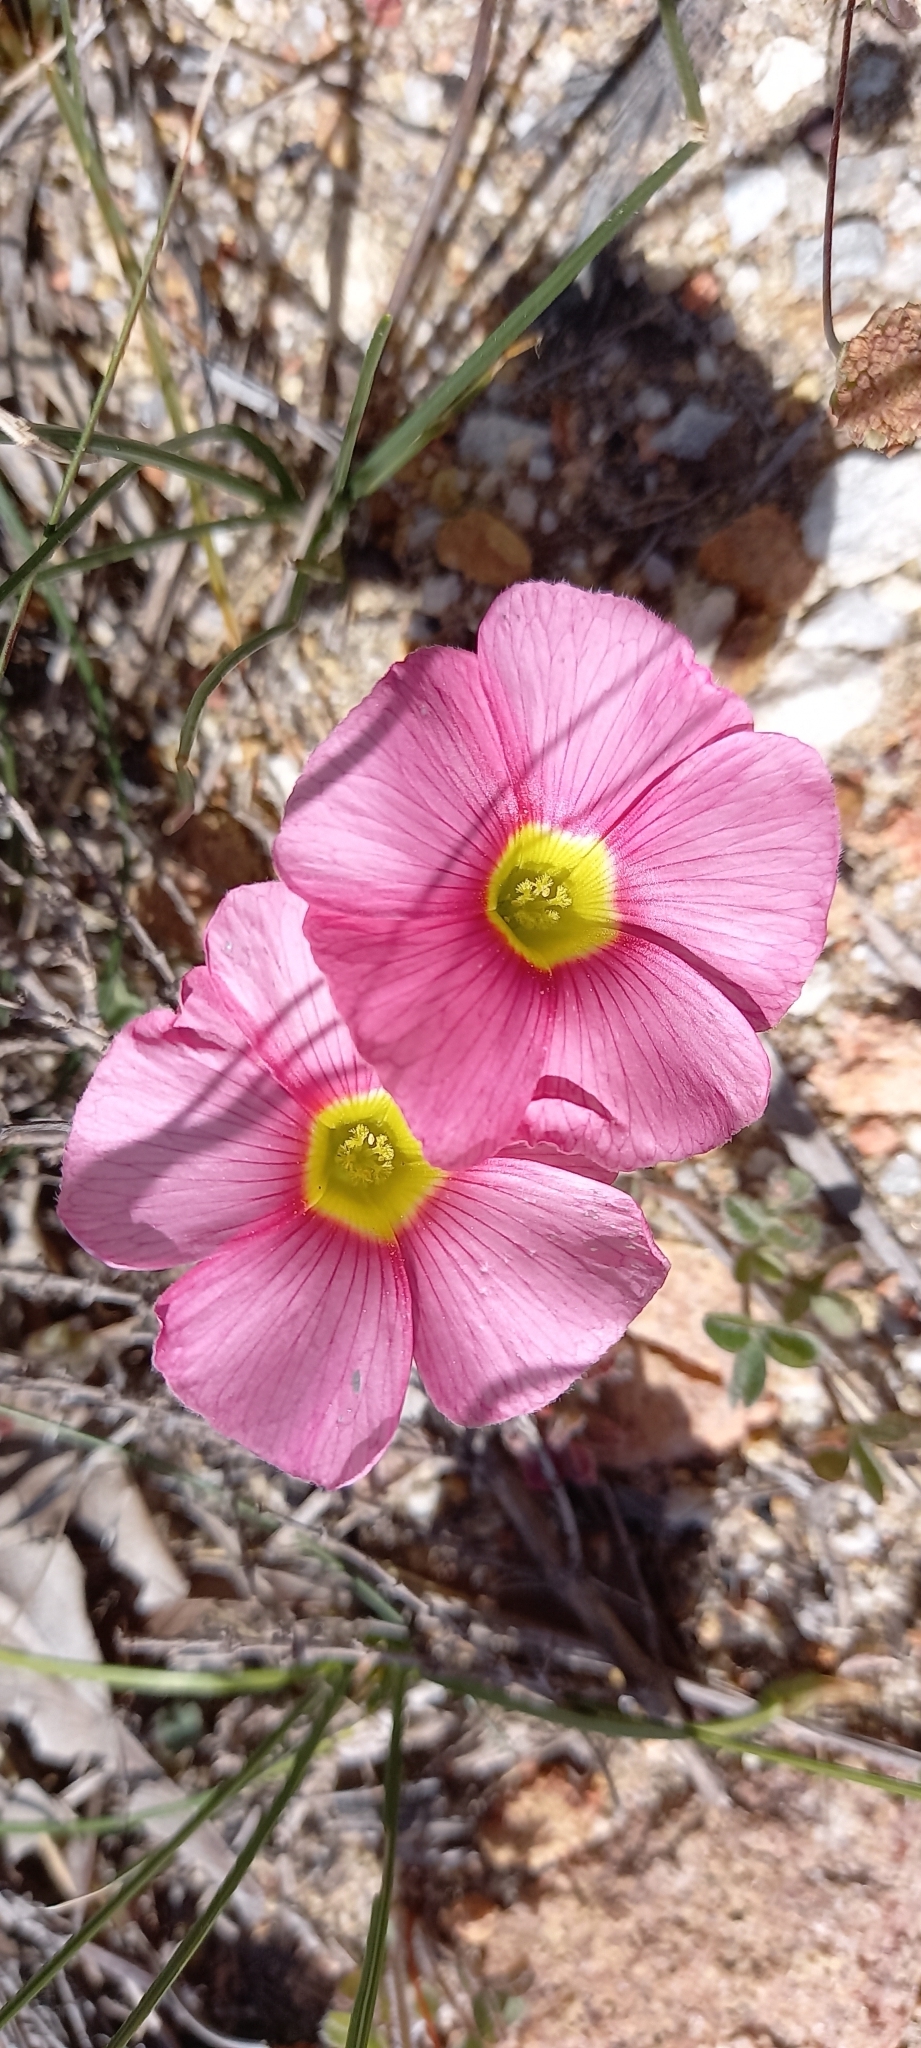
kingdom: Plantae
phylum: Tracheophyta
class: Magnoliopsida
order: Oxalidales
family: Oxalidaceae
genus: Oxalis
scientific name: Oxalis obtusa
